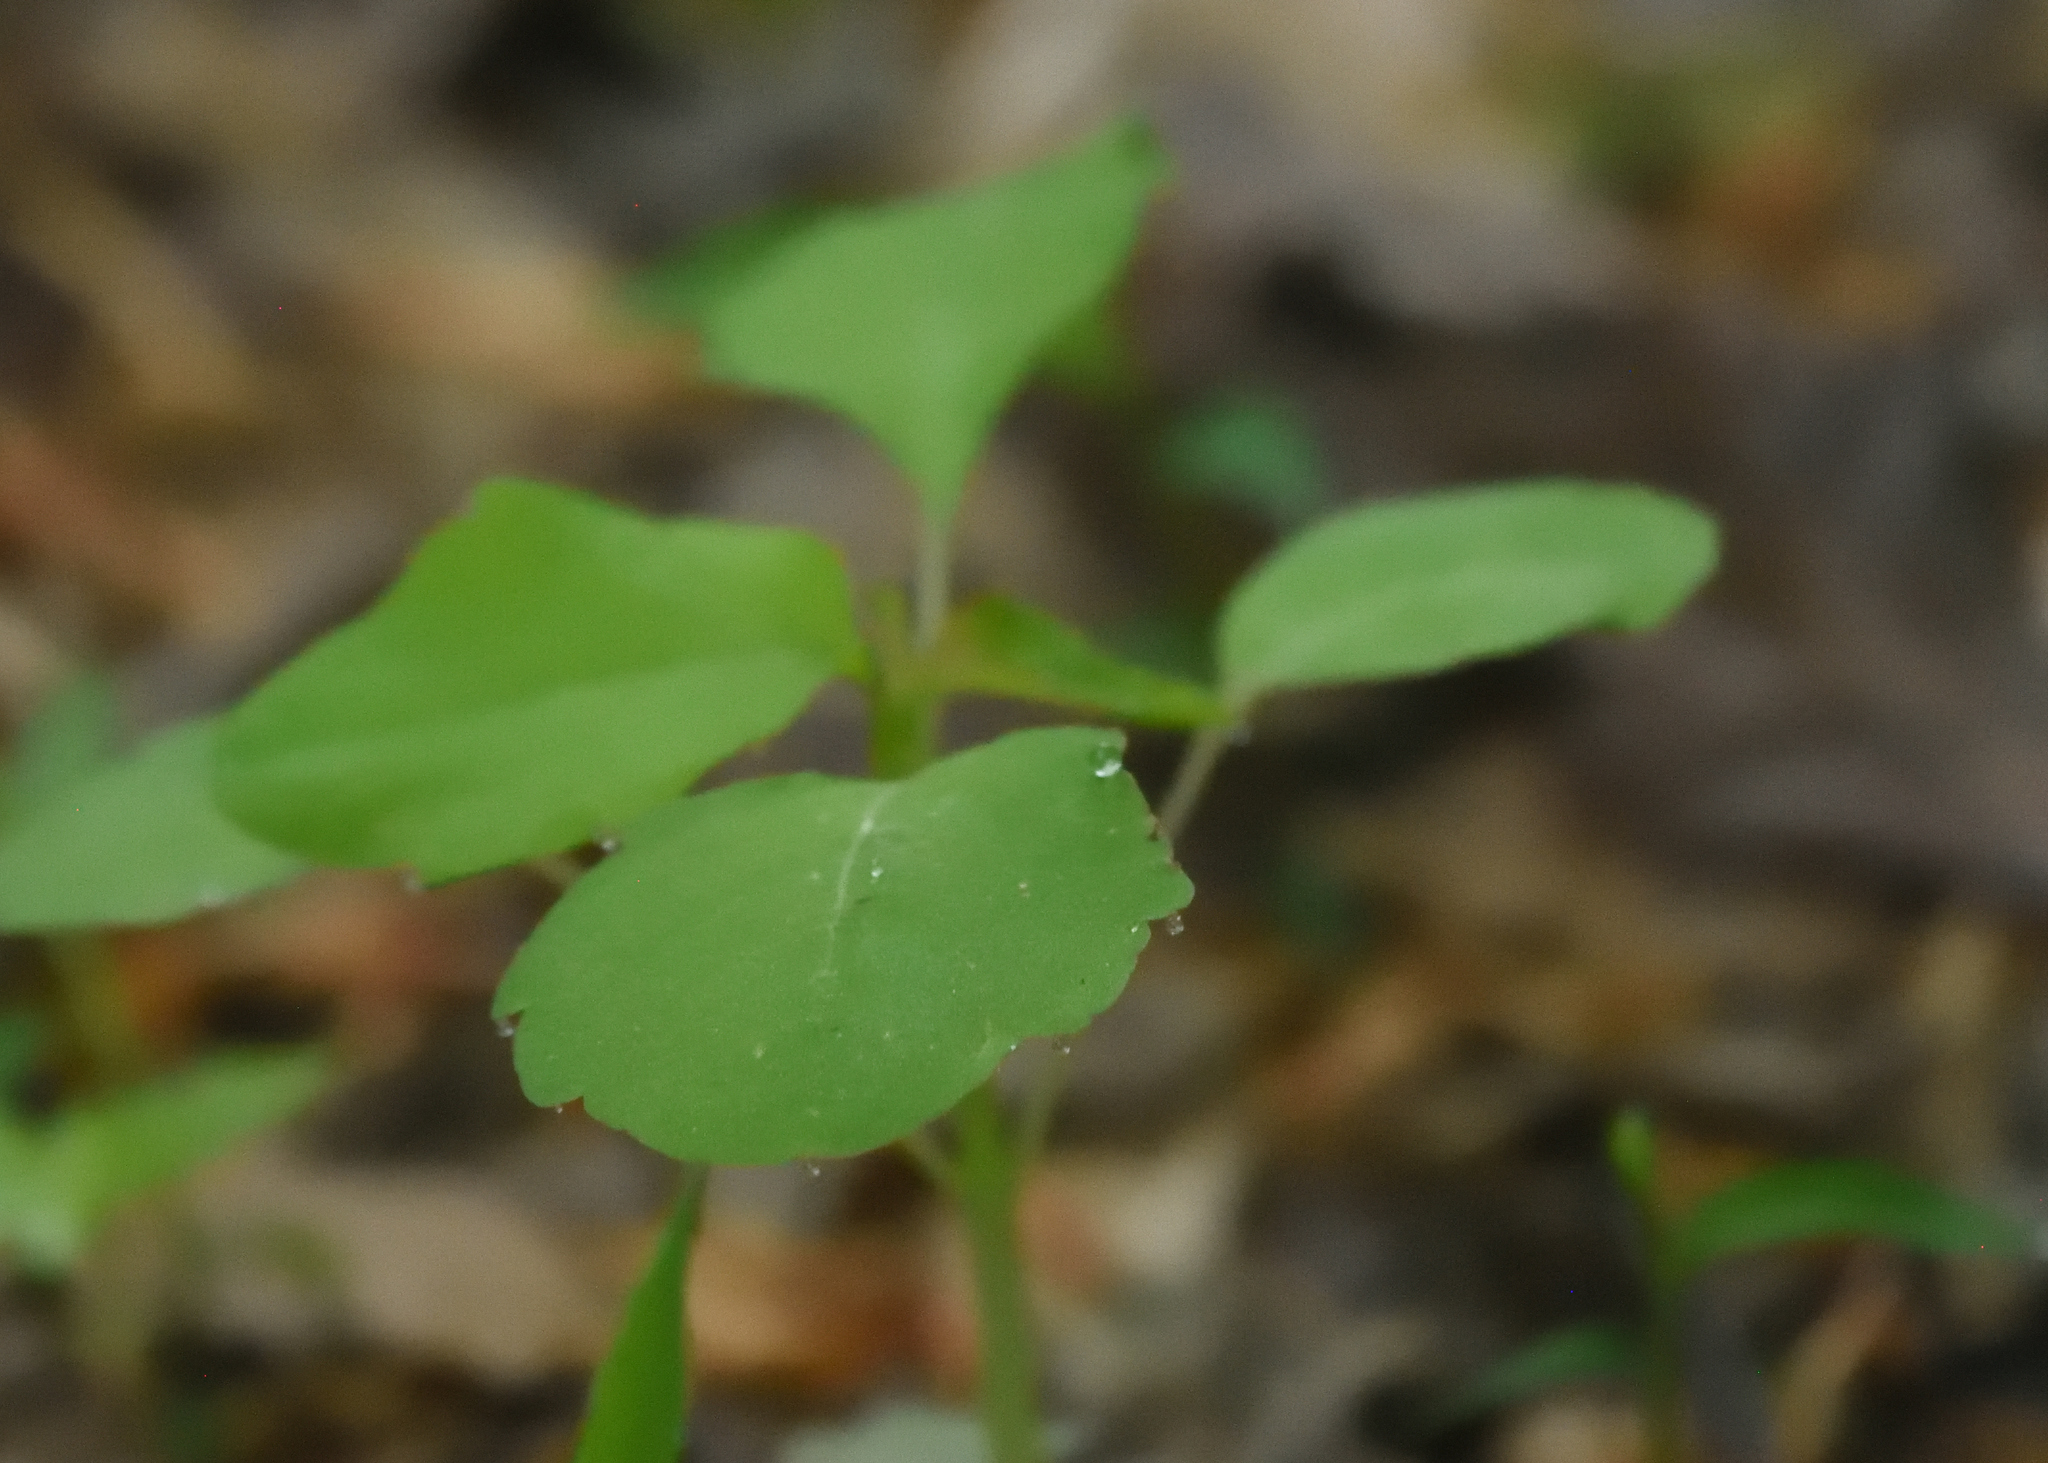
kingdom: Plantae
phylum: Tracheophyta
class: Magnoliopsida
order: Ericales
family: Balsaminaceae
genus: Impatiens
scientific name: Impatiens capensis
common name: Orange balsam
